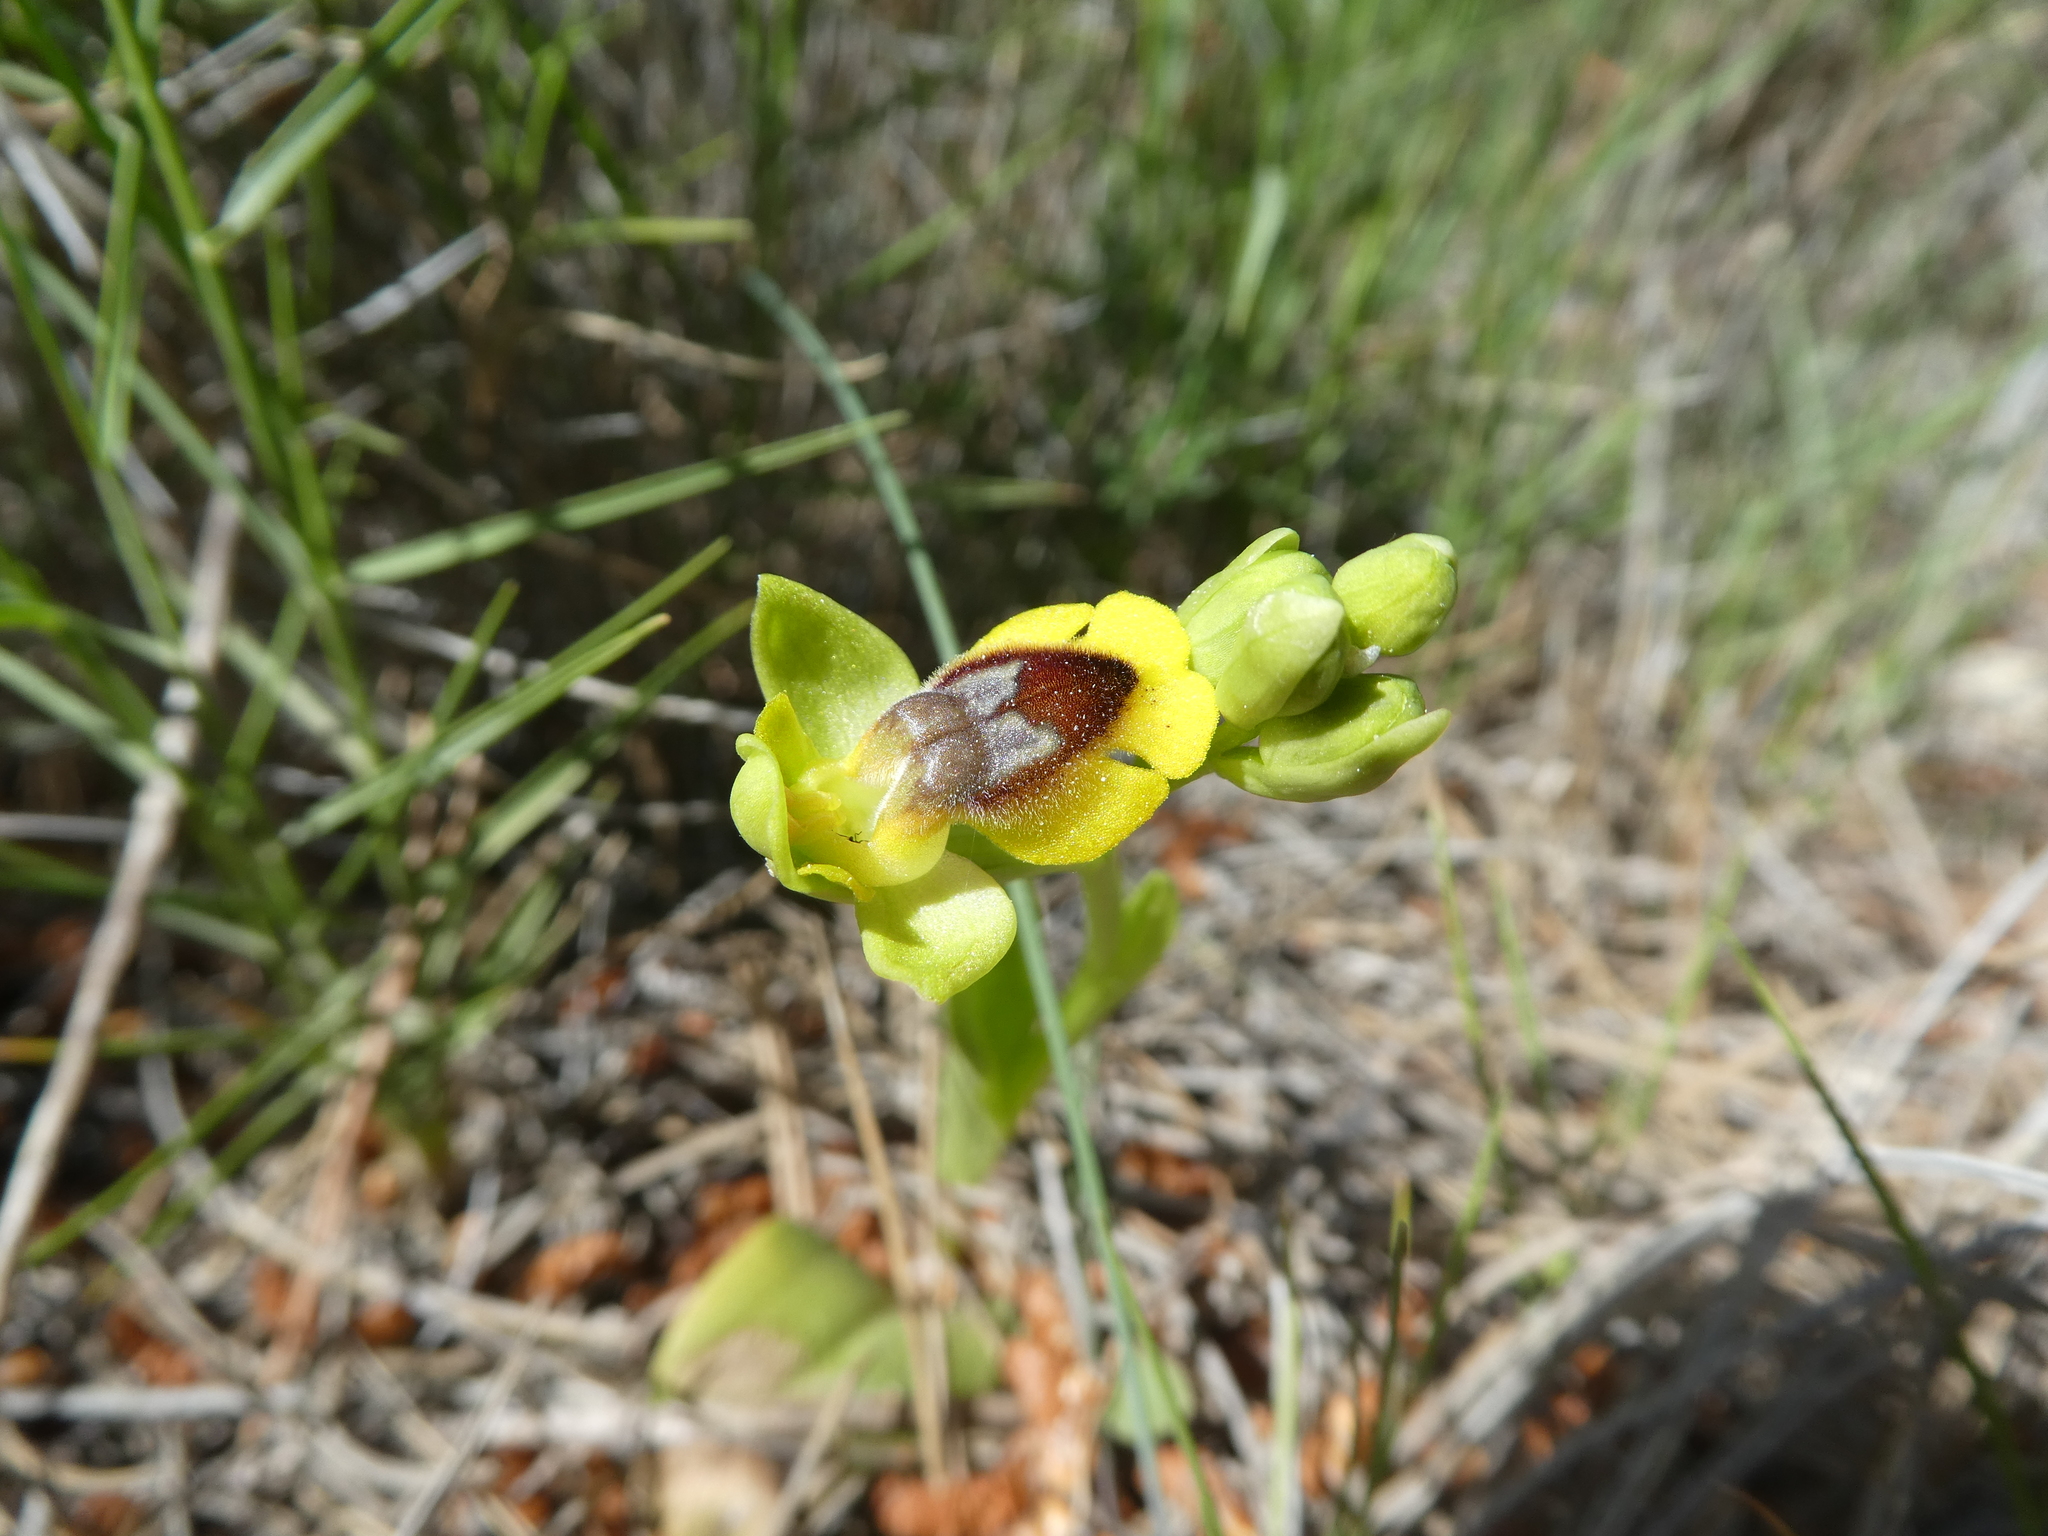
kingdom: Plantae
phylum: Tracheophyta
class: Liliopsida
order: Asparagales
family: Orchidaceae
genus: Ophrys
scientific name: Ophrys lutea
